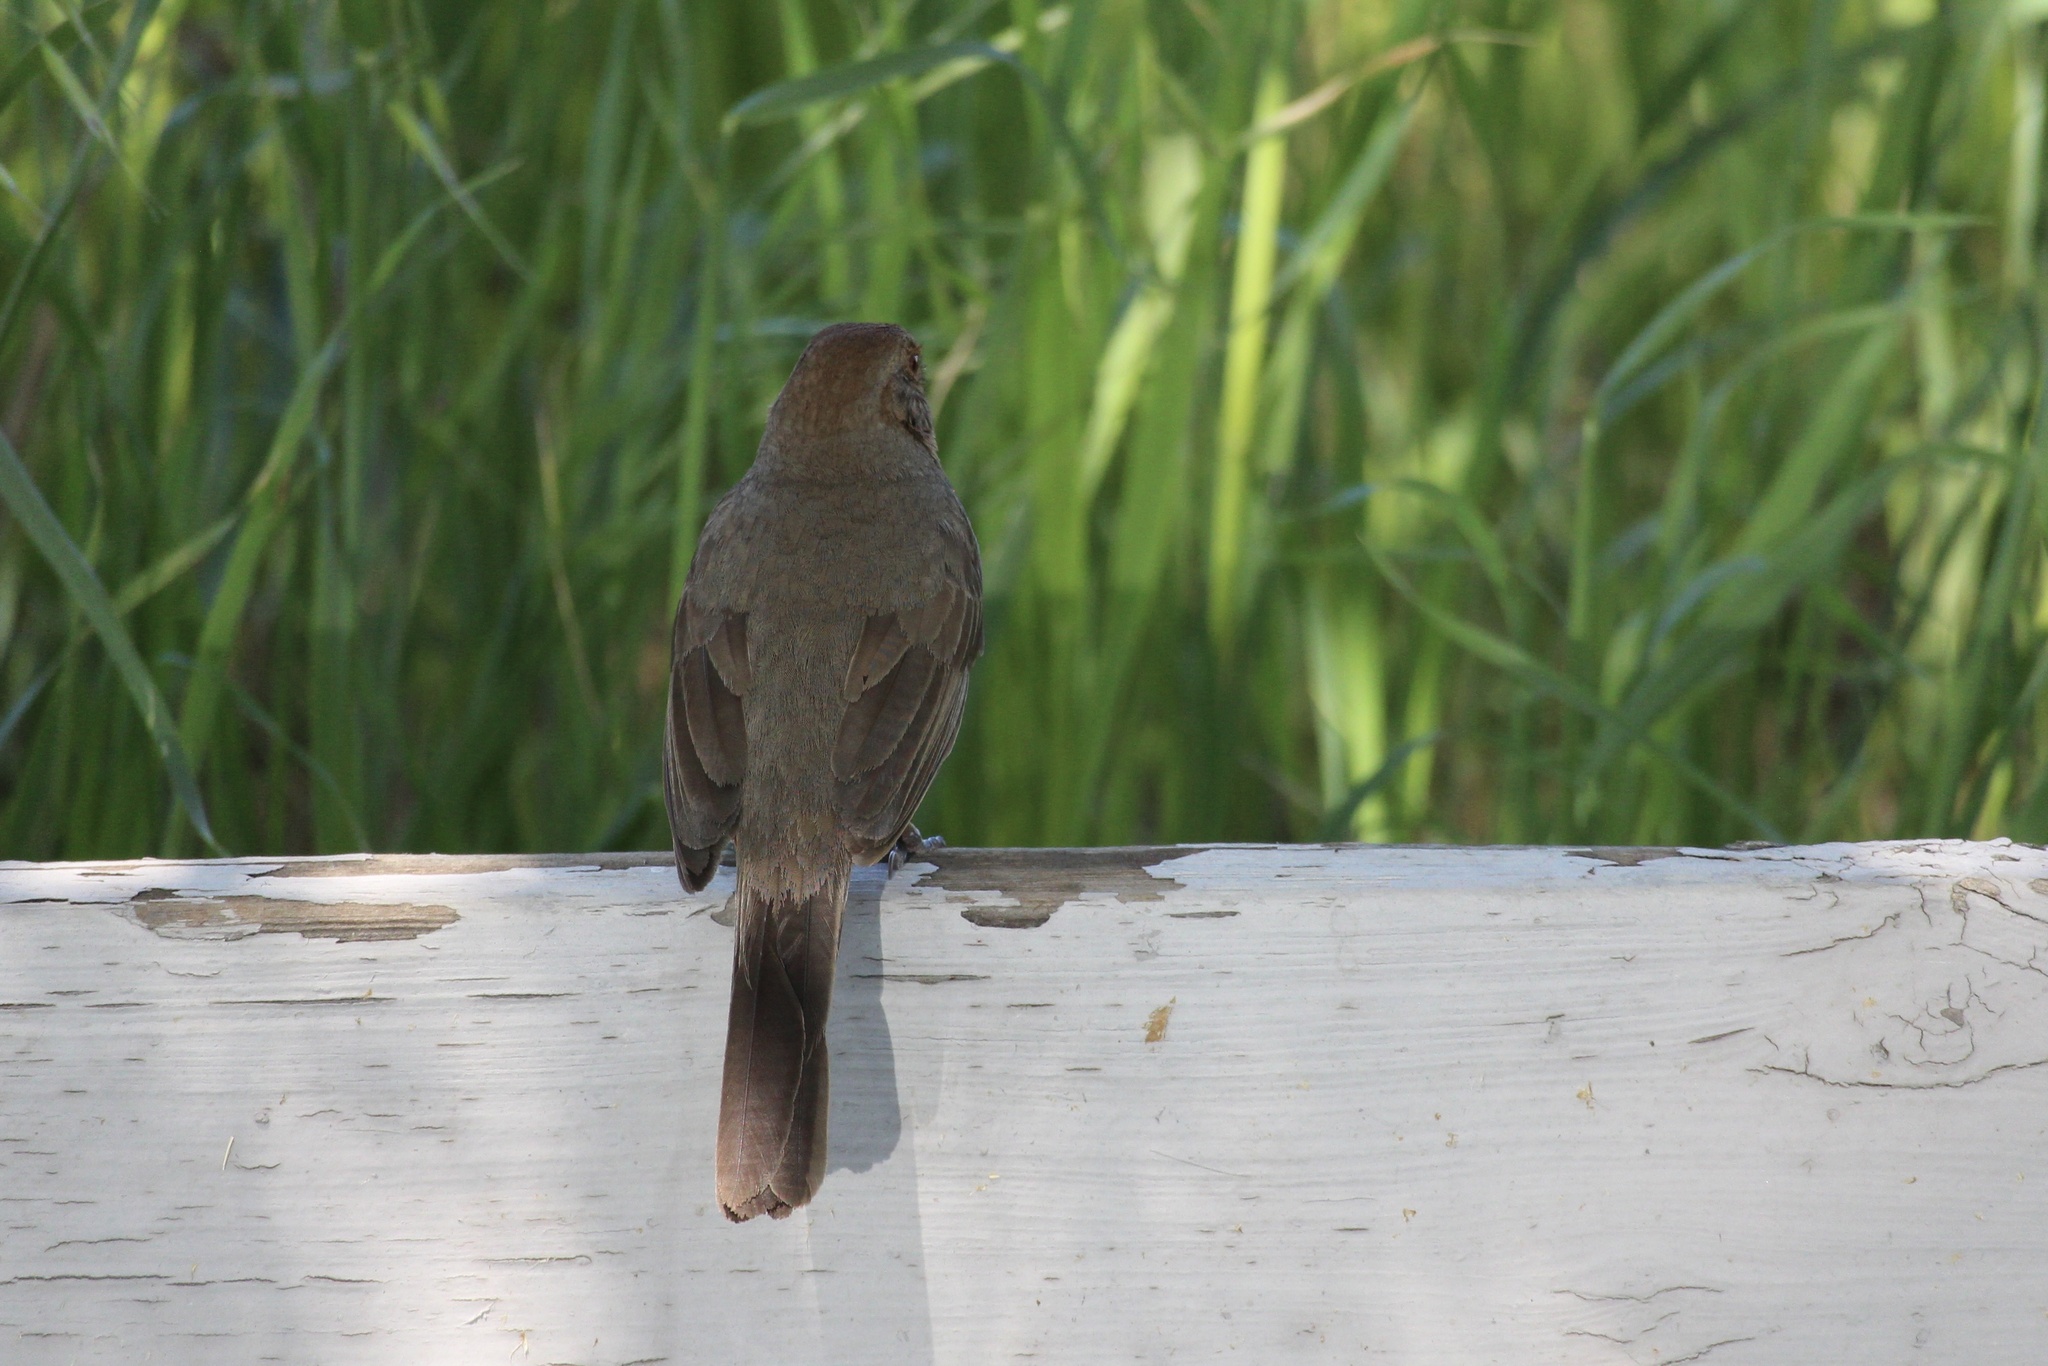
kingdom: Animalia
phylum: Chordata
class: Aves
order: Passeriformes
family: Passerellidae
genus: Melozone
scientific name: Melozone crissalis
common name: California towhee
